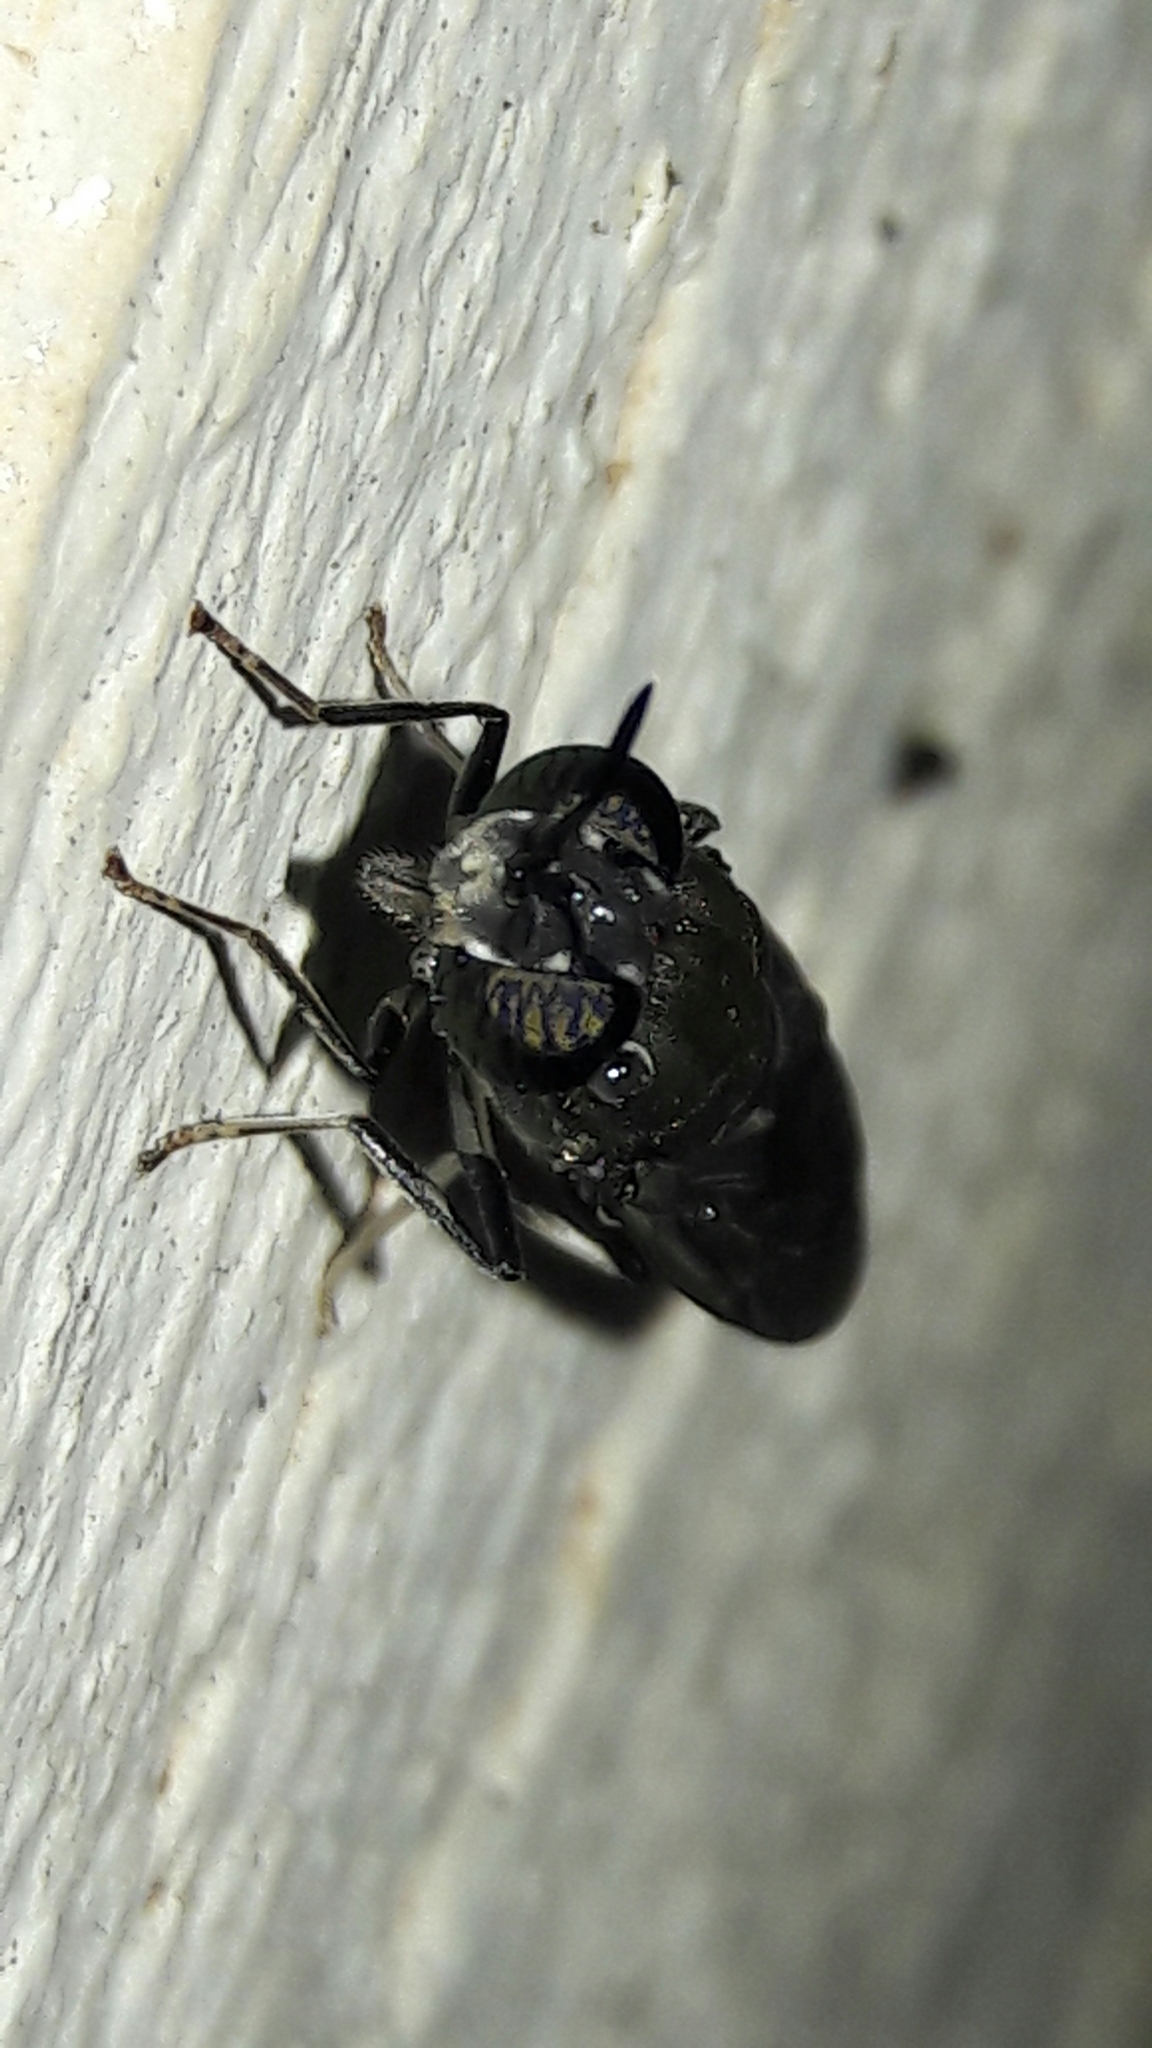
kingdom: Animalia
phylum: Arthropoda
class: Insecta
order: Diptera
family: Stratiomyidae
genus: Hermetia
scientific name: Hermetia illucens
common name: Black soldier fly
